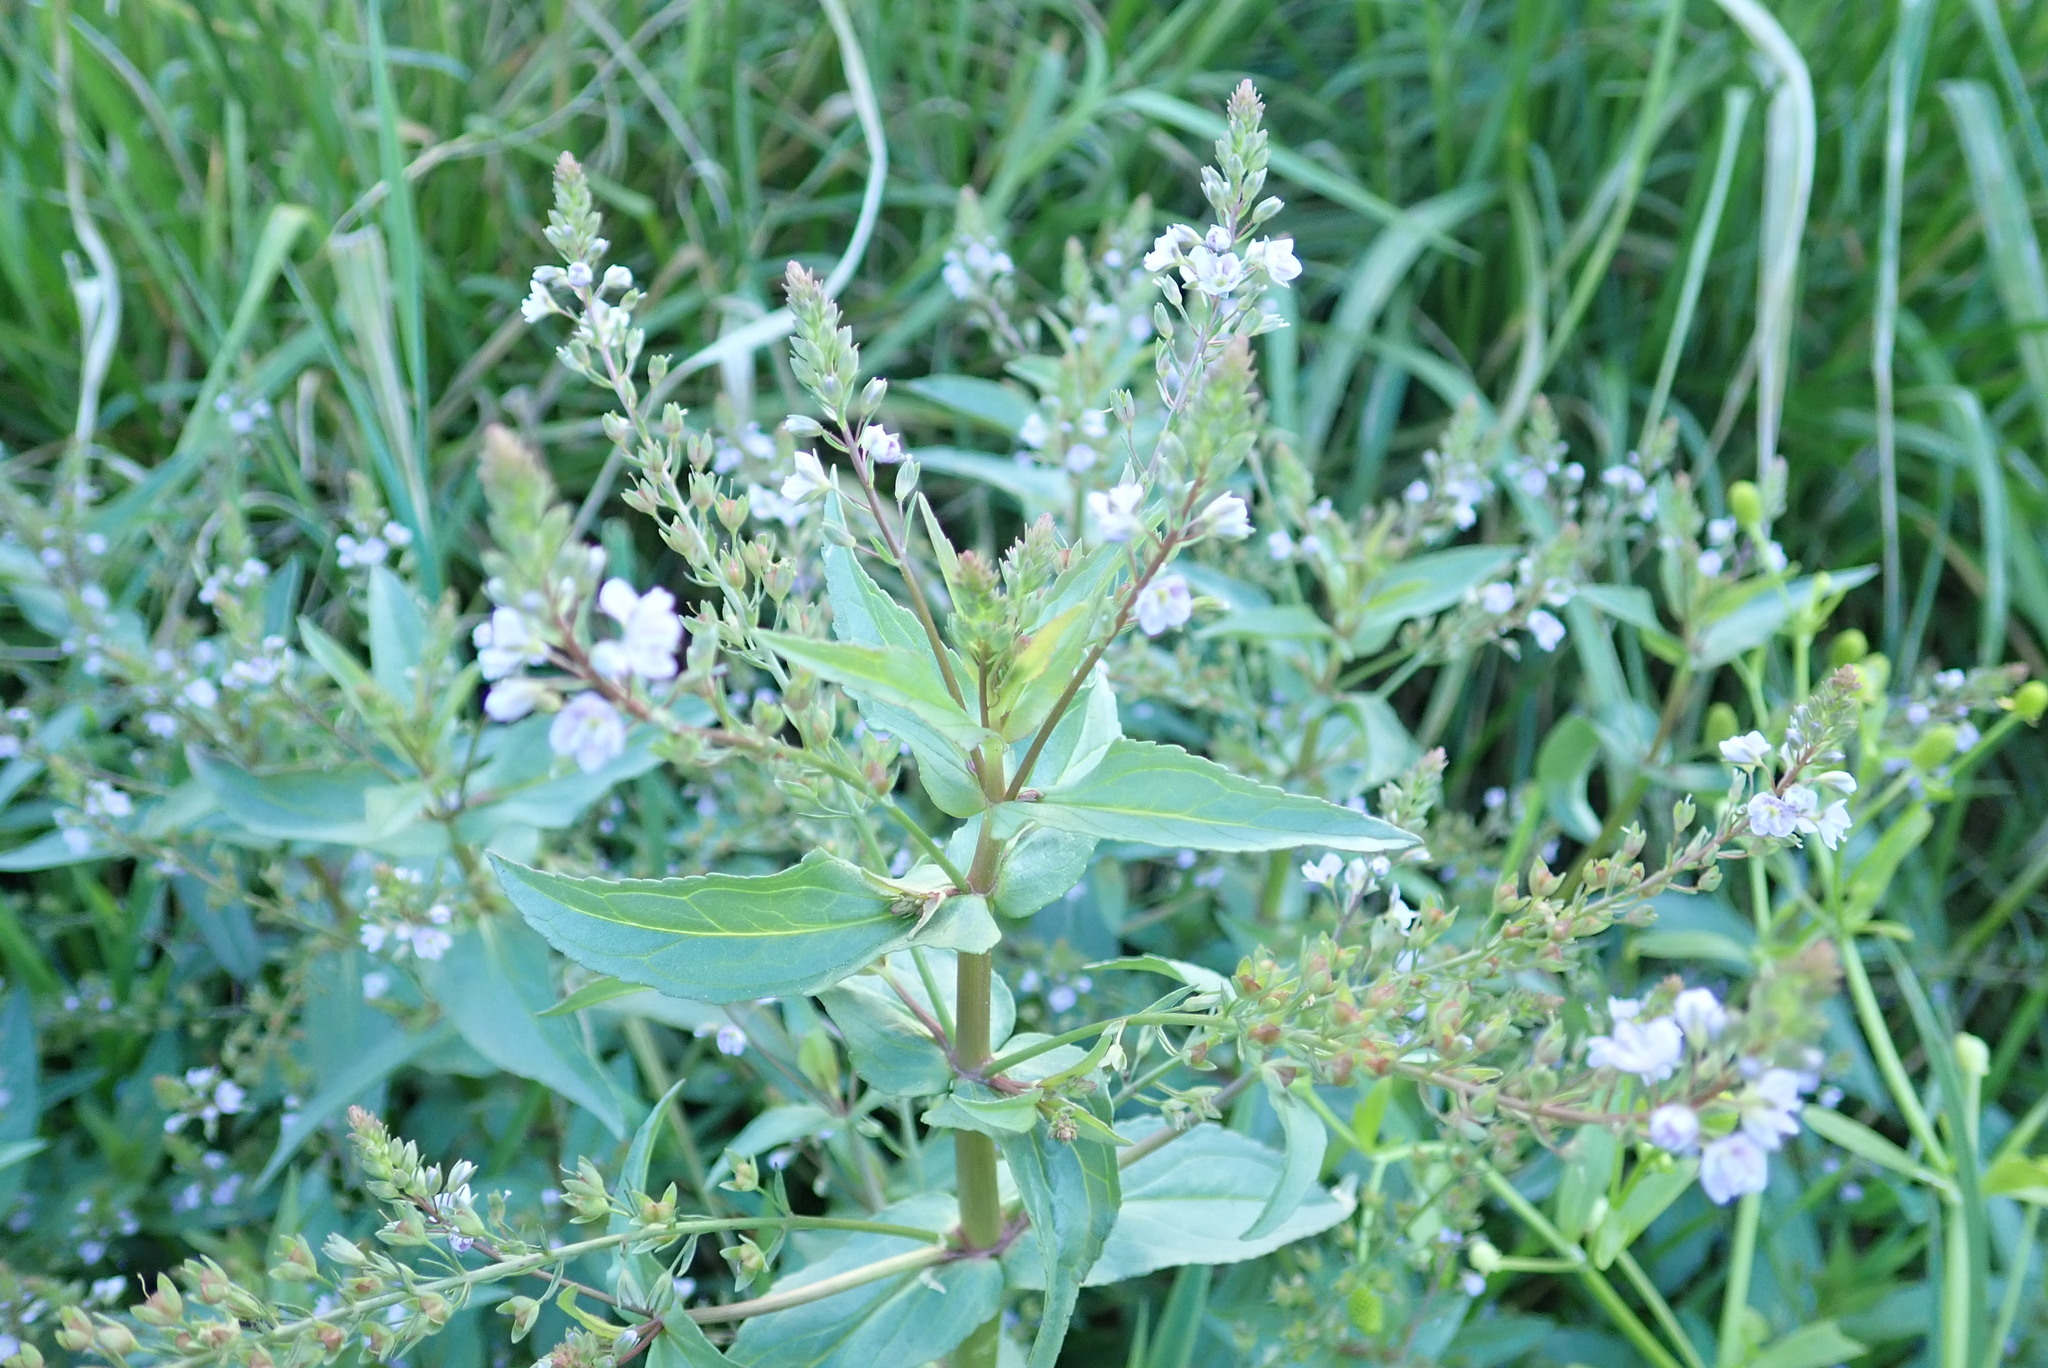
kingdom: Plantae
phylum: Tracheophyta
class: Magnoliopsida
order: Lamiales
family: Plantaginaceae
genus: Veronica
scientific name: Veronica anagallis-aquatica
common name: Water speedwell
